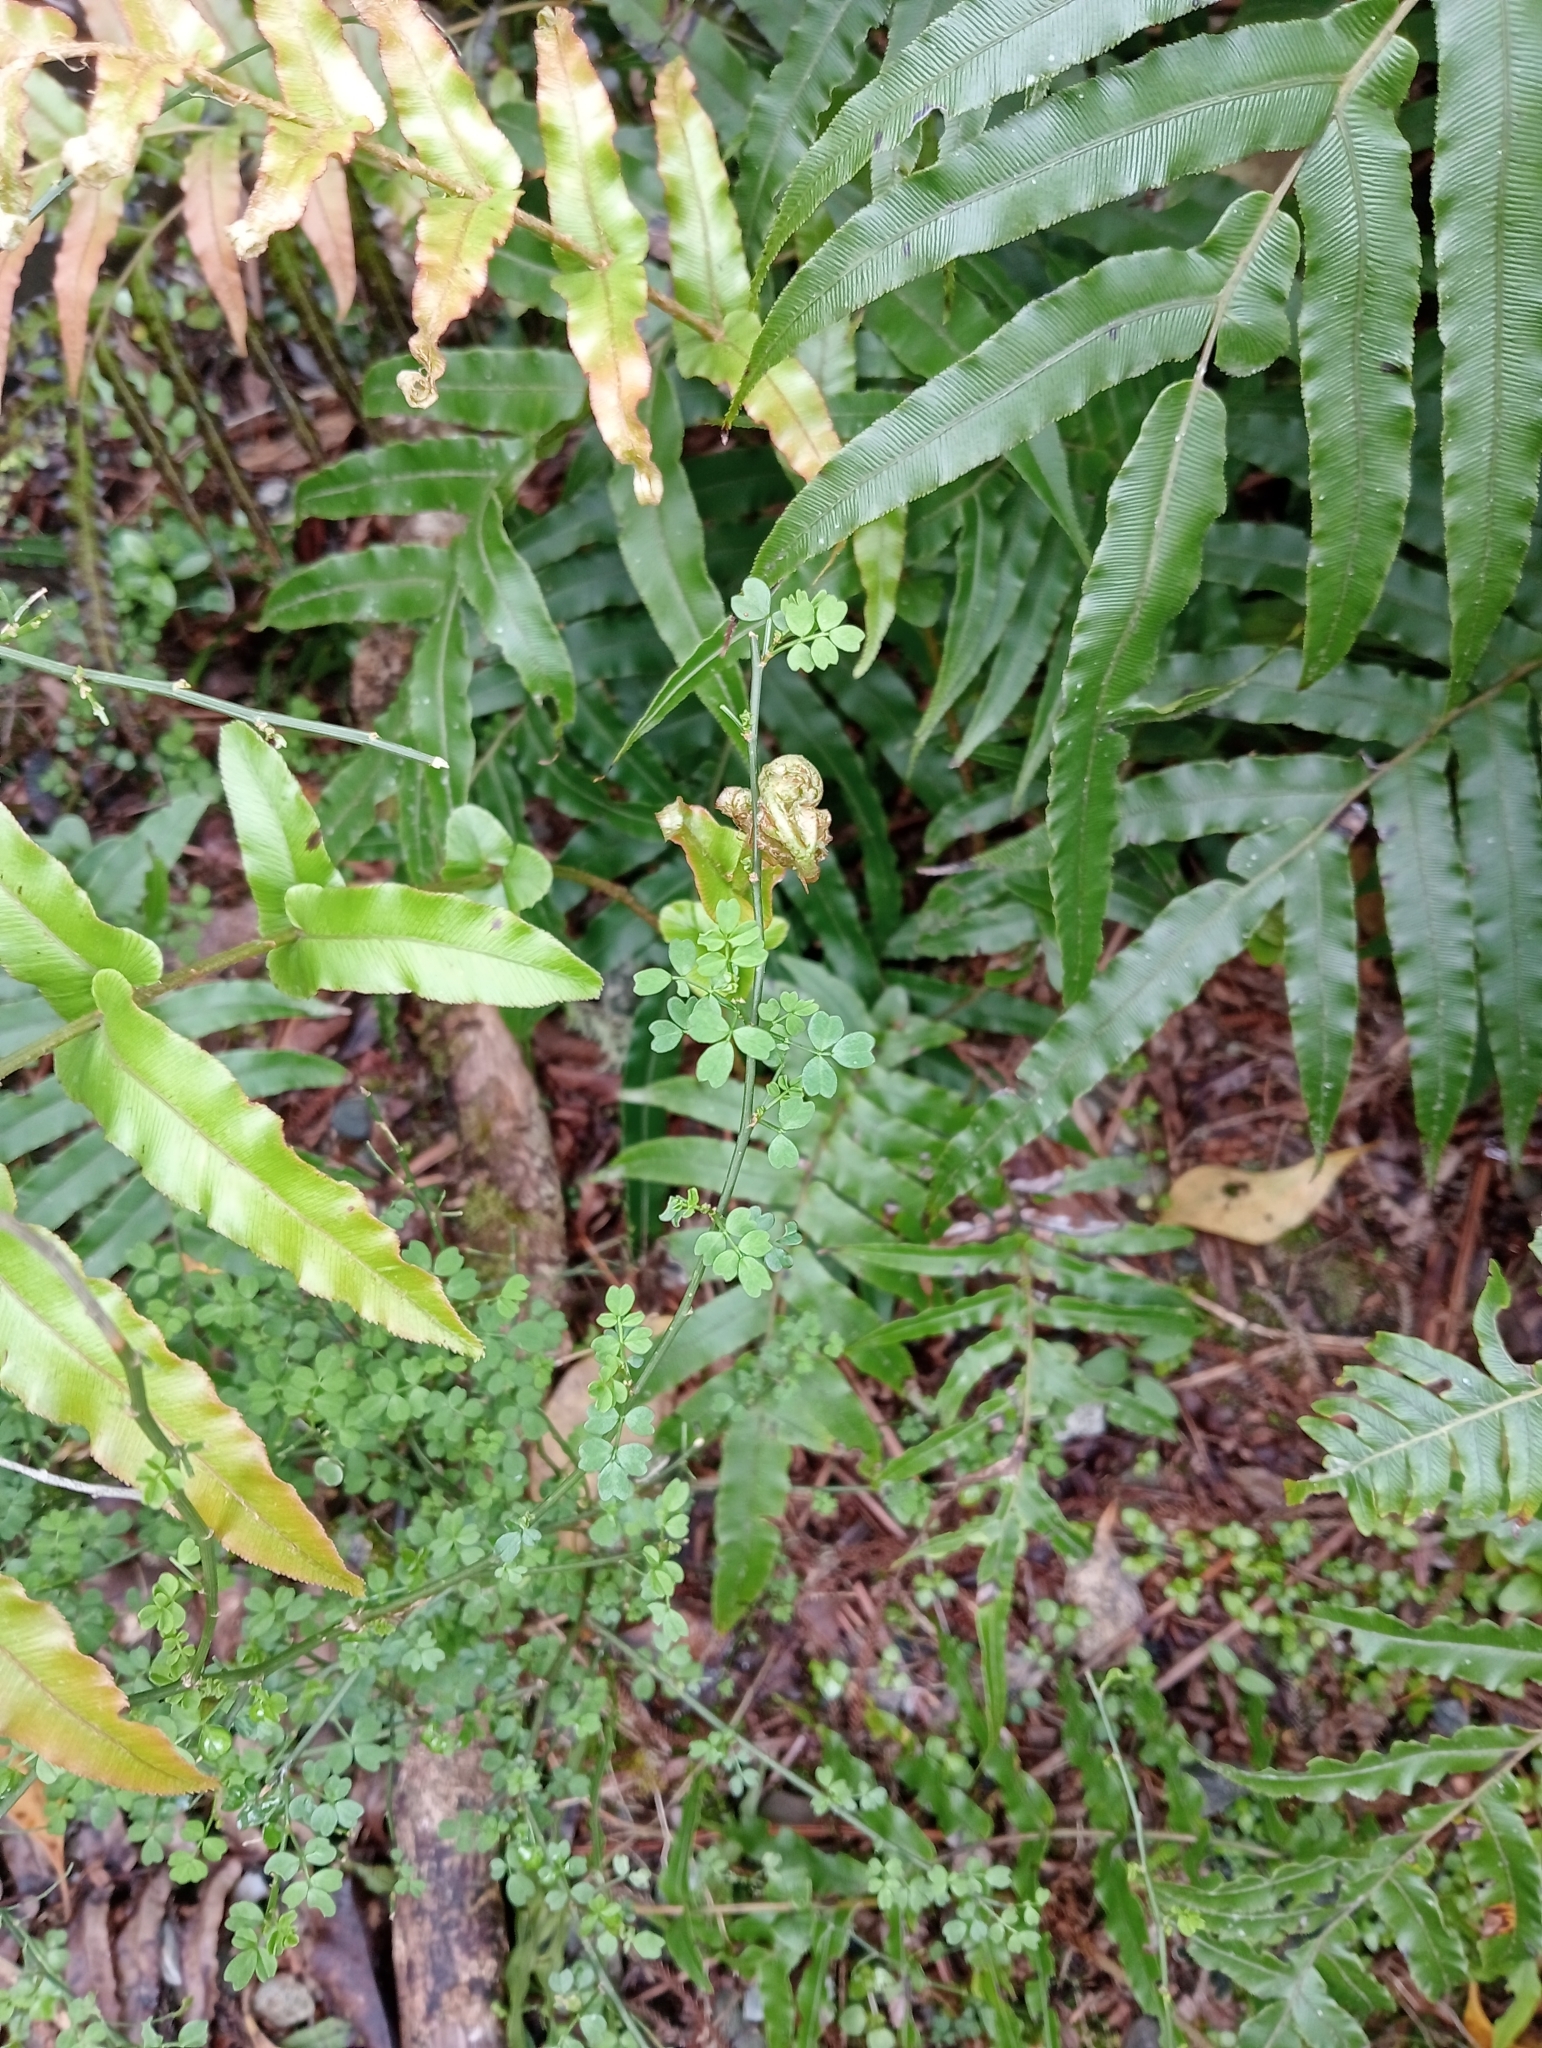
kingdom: Plantae
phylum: Tracheophyta
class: Magnoliopsida
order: Fabales
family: Fabaceae
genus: Carmichaelia
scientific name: Carmichaelia arborea
